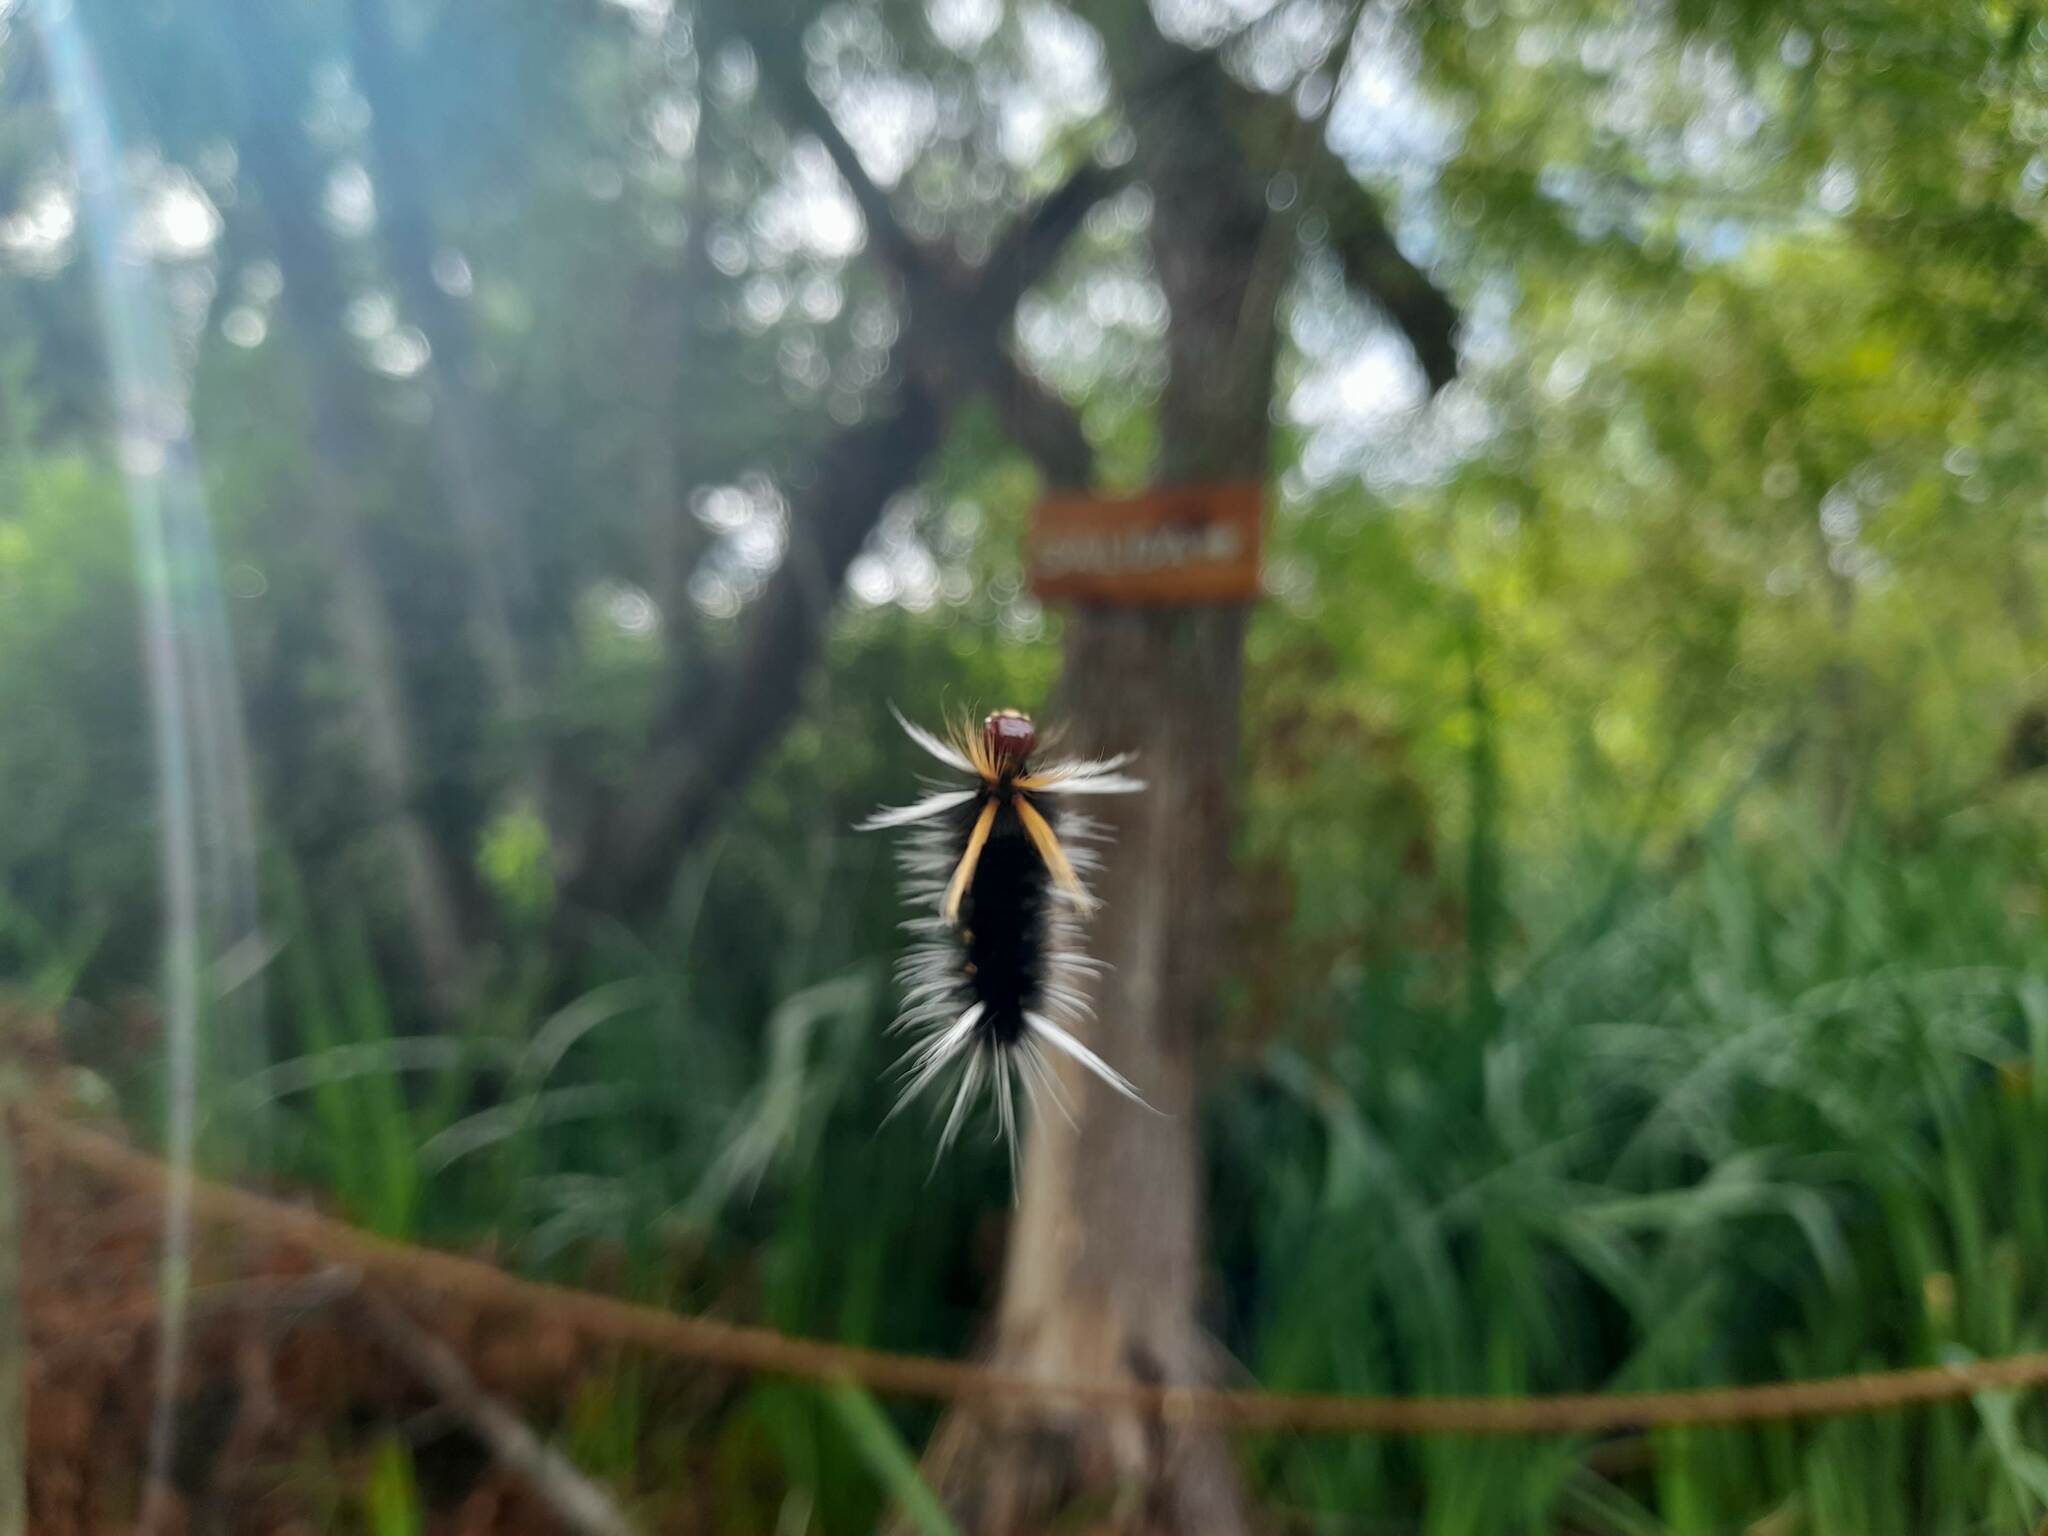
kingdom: Animalia
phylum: Arthropoda
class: Insecta
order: Lepidoptera
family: Erebidae
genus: Halysidota
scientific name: Halysidota ruscheweyhi
